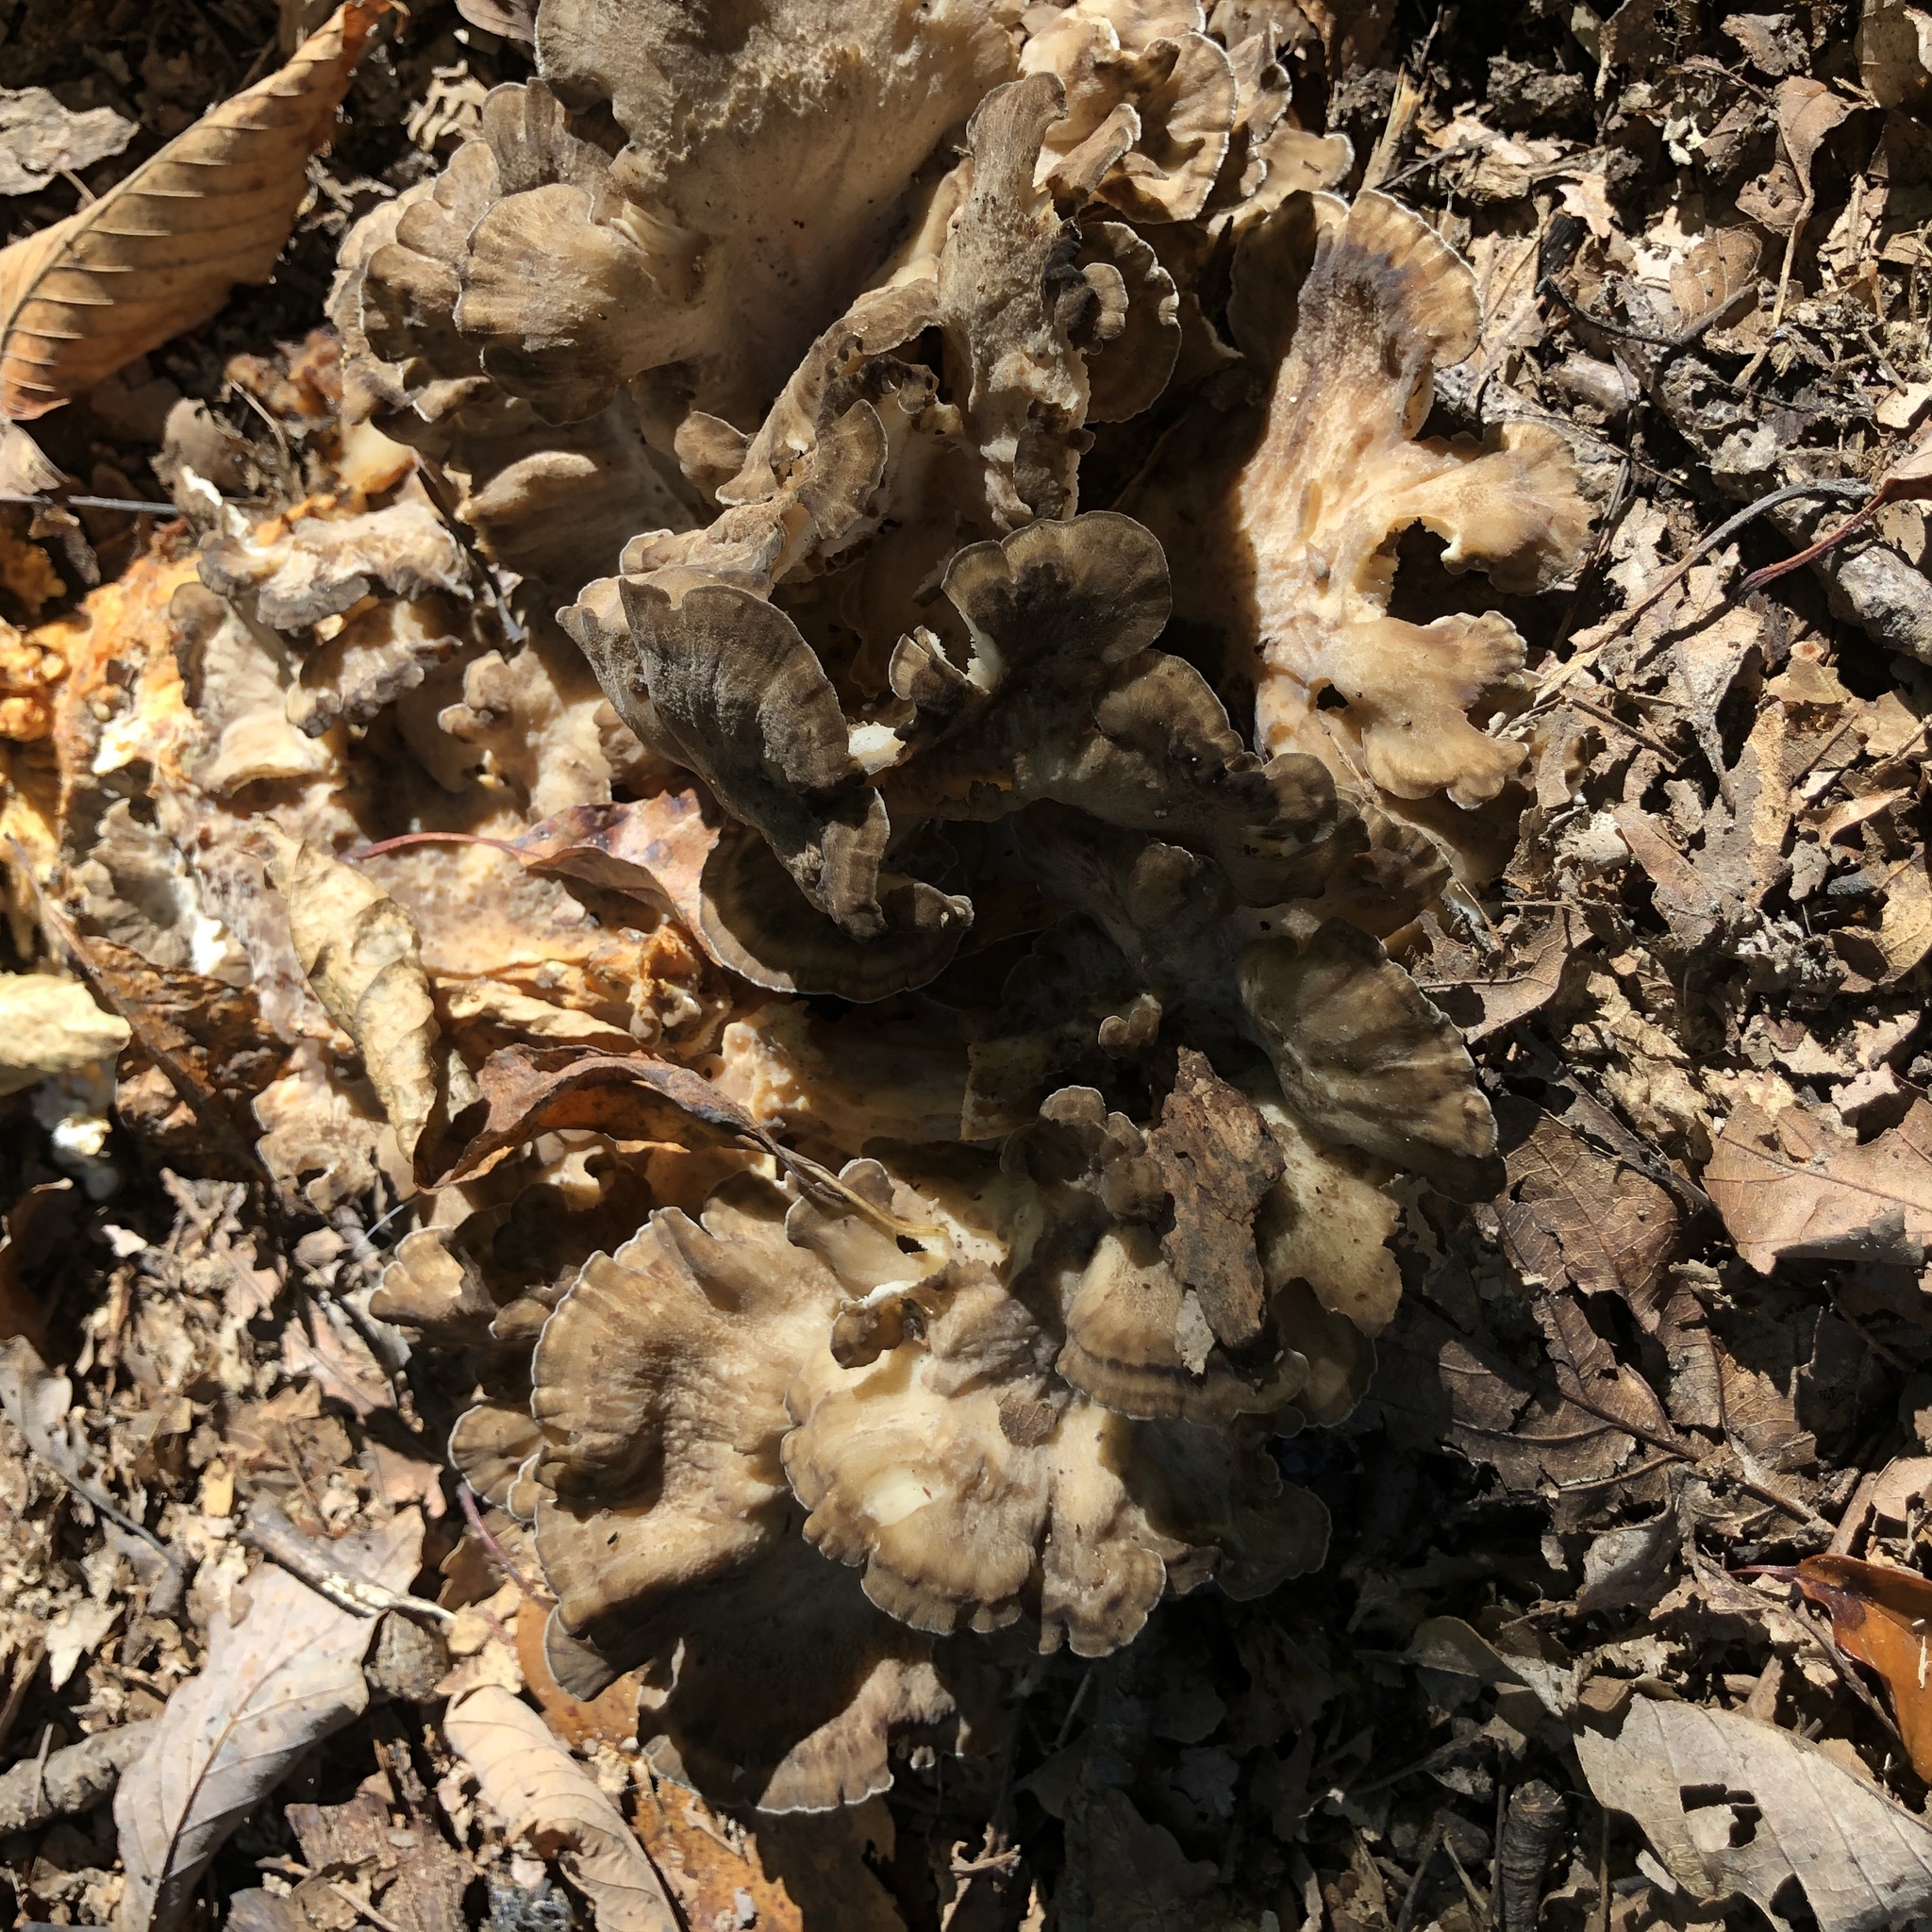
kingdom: Fungi
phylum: Basidiomycota
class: Agaricomycetes
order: Polyporales
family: Grifolaceae
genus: Grifola
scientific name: Grifola frondosa
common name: Hen of the woods
